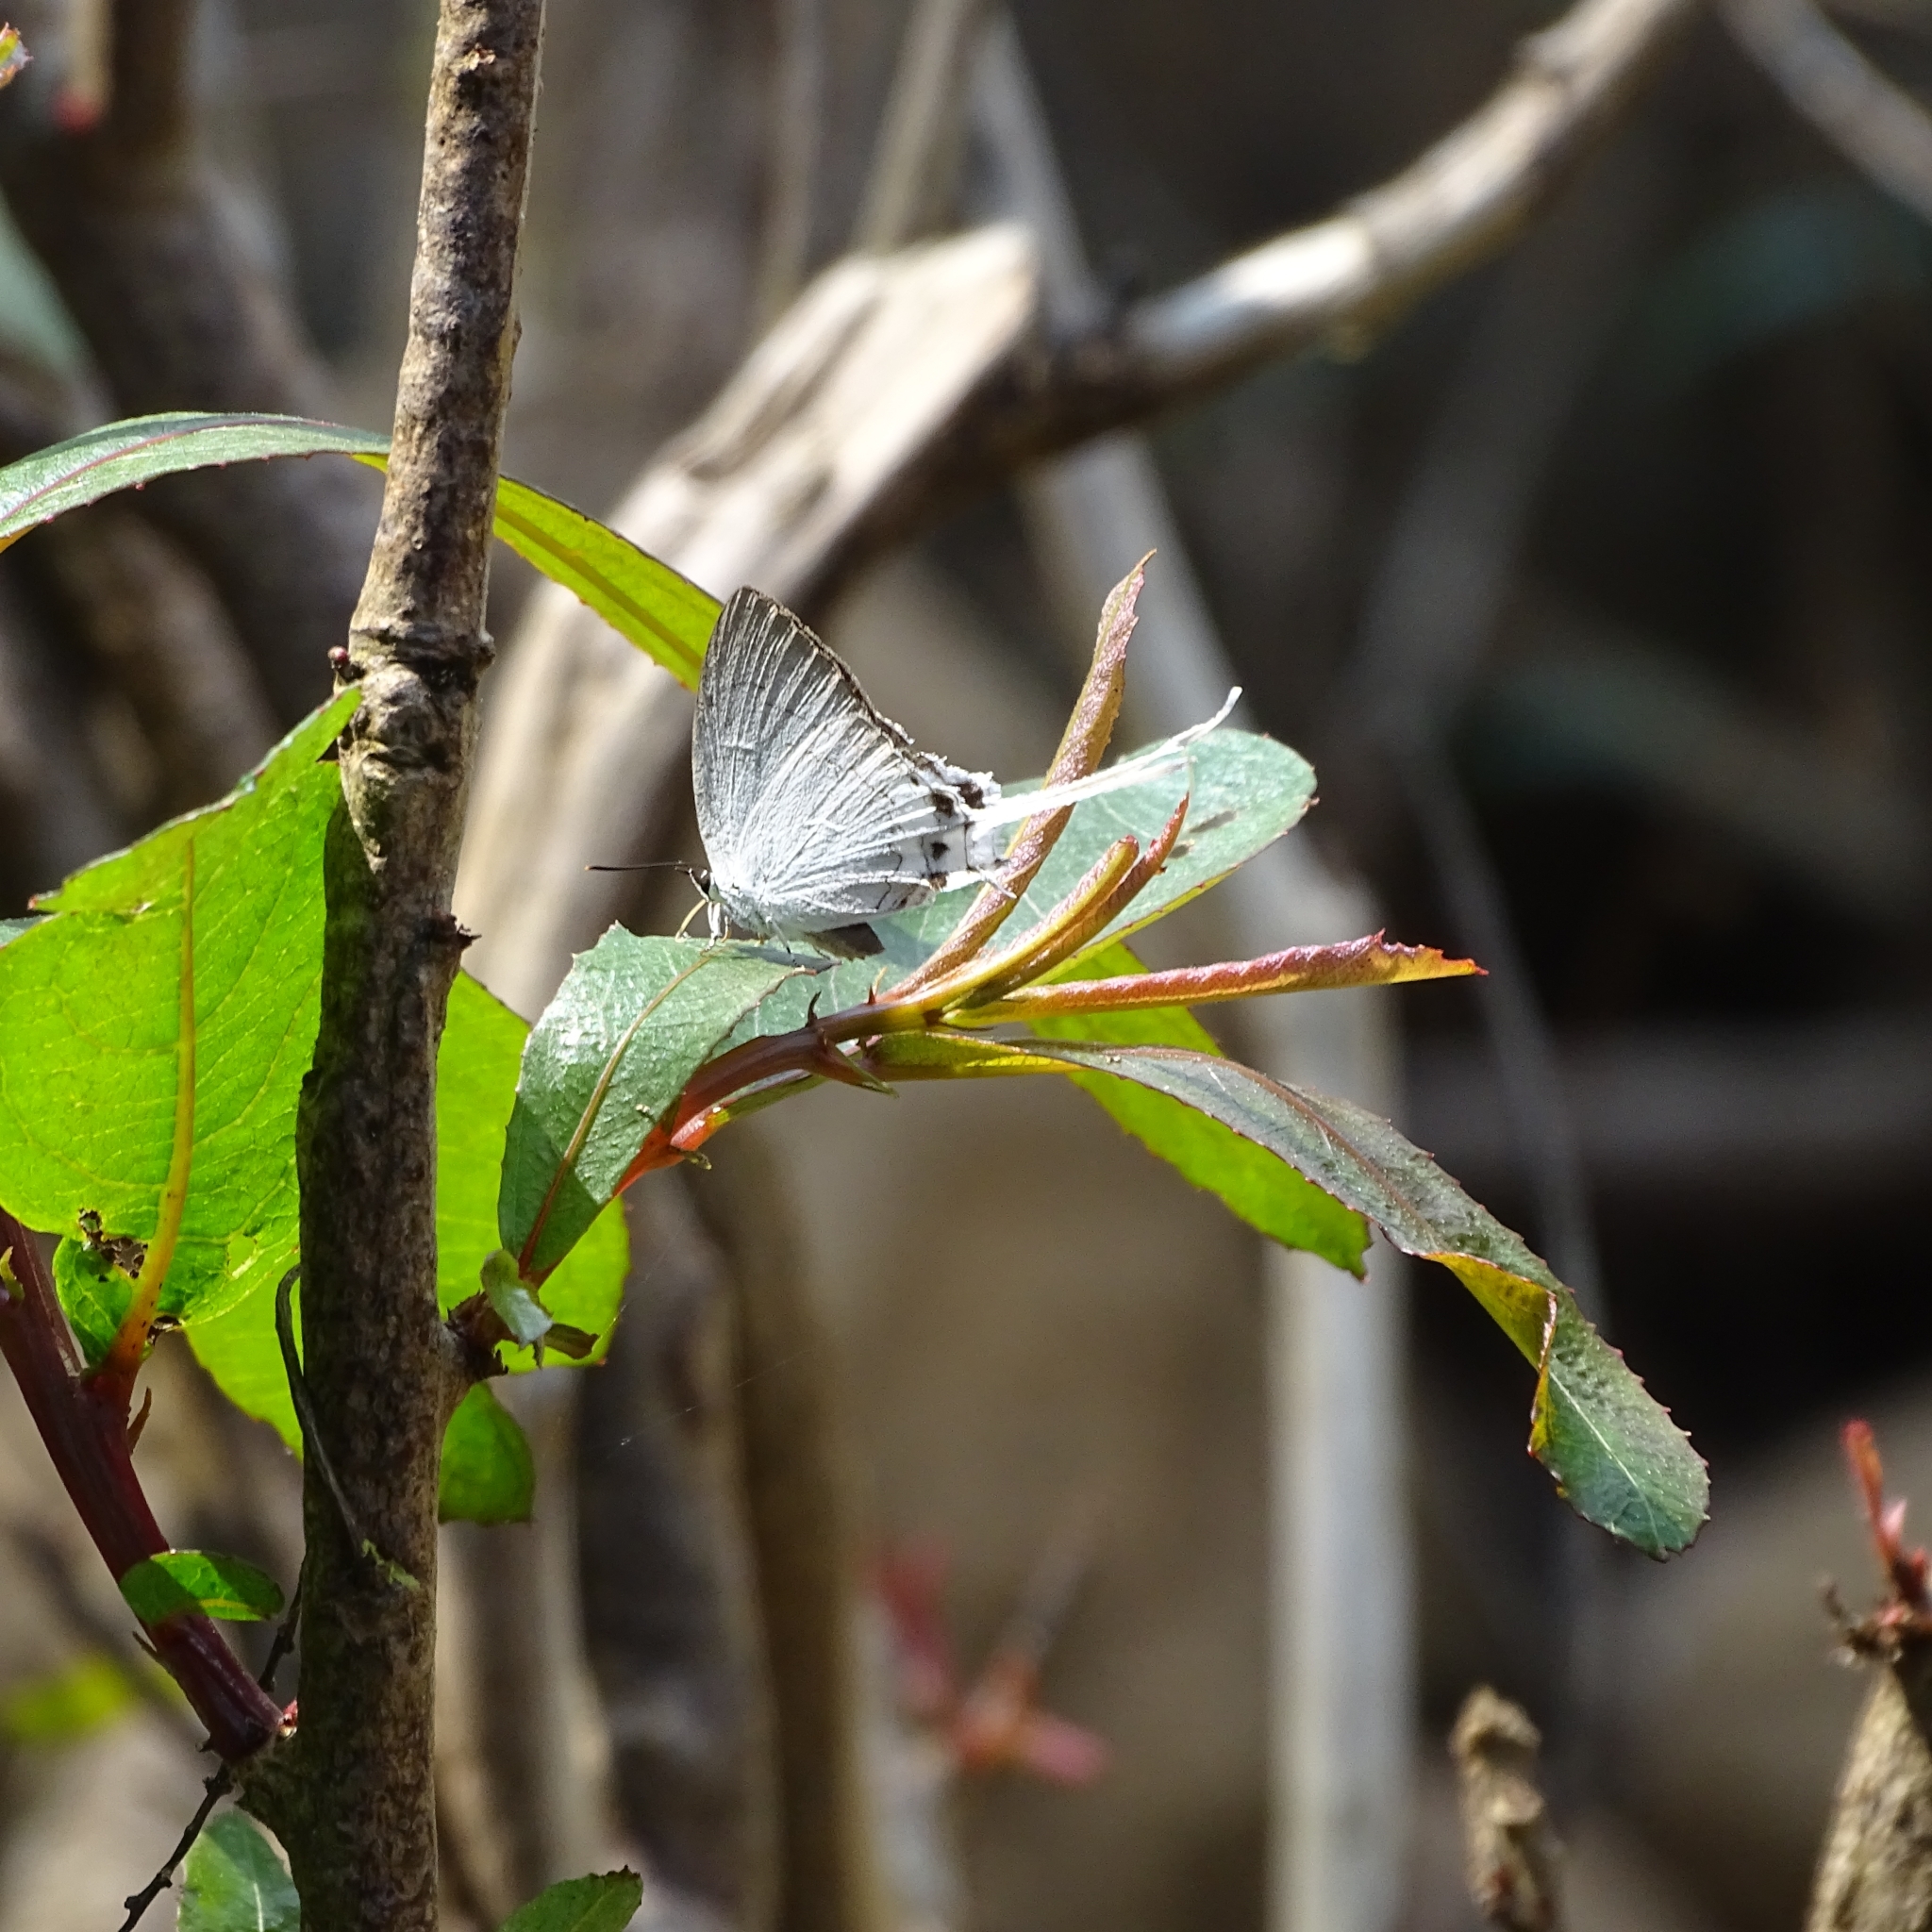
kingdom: Animalia
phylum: Arthropoda
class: Insecta
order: Lepidoptera
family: Lycaenidae
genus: Cheritra
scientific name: Cheritra freja
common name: Common imperial
